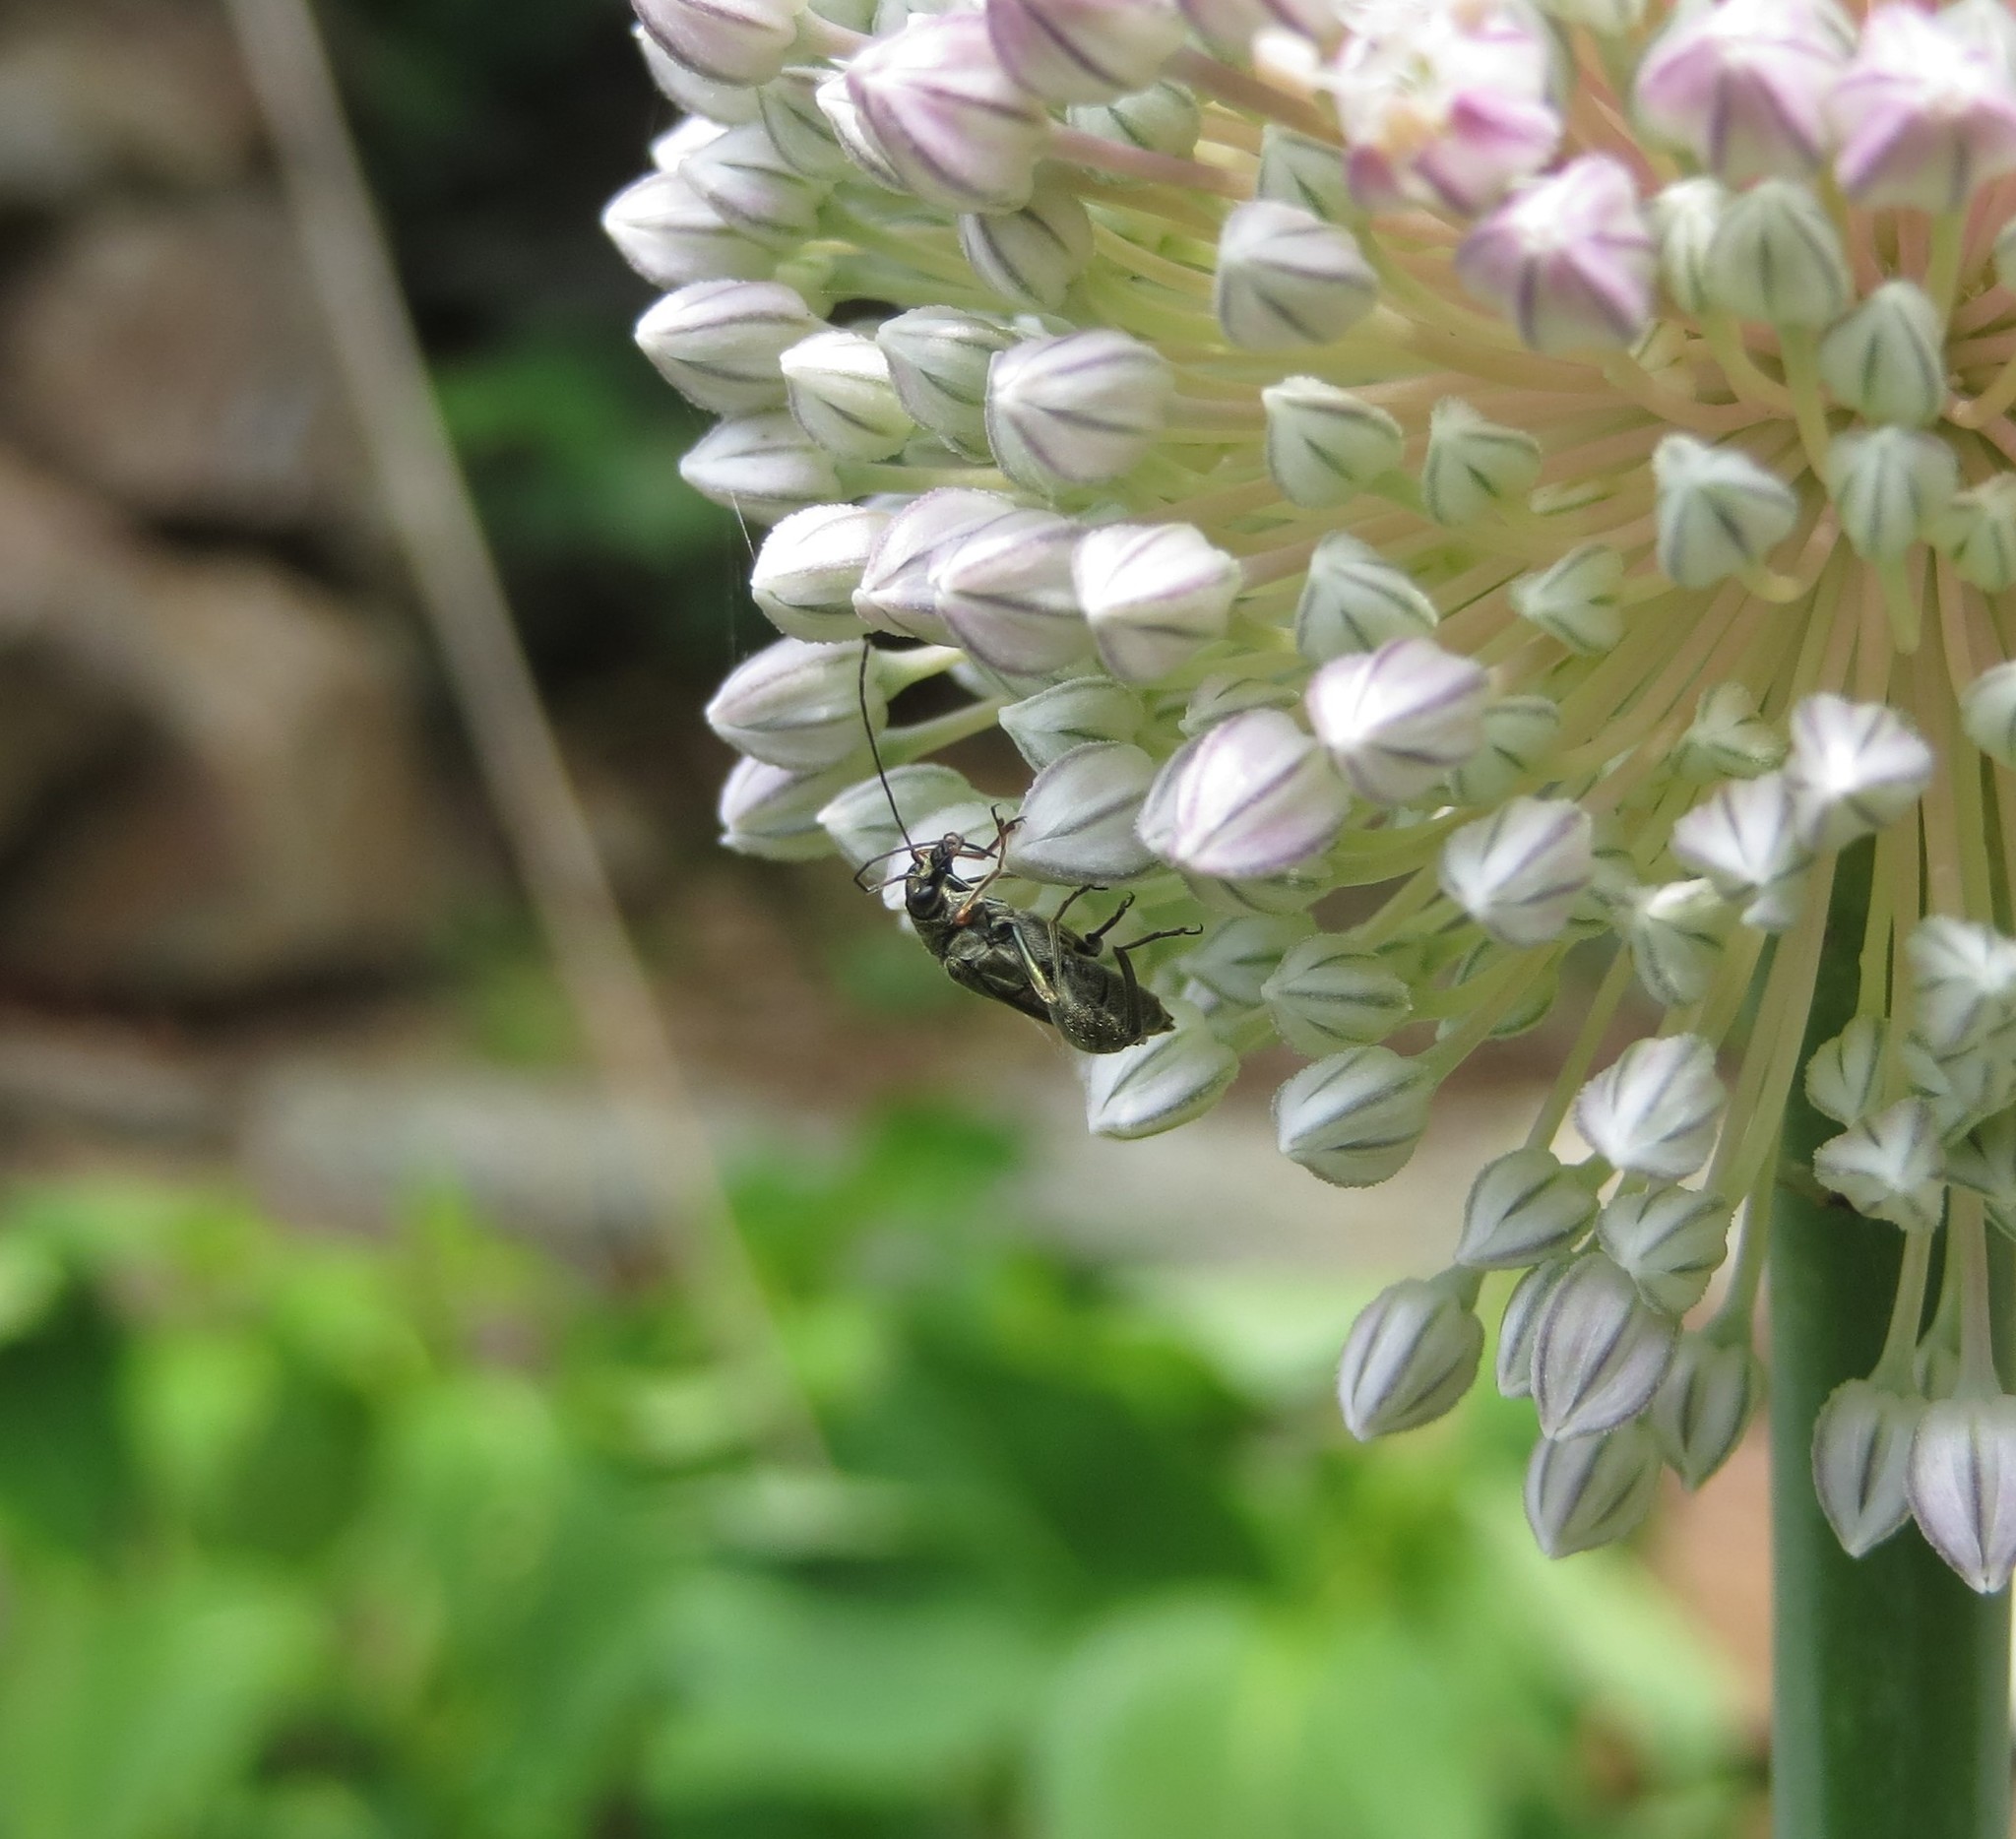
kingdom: Animalia
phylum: Arthropoda
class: Insecta
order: Coleoptera
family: Oedemeridae
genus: Oedemera
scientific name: Oedemera flavipes
